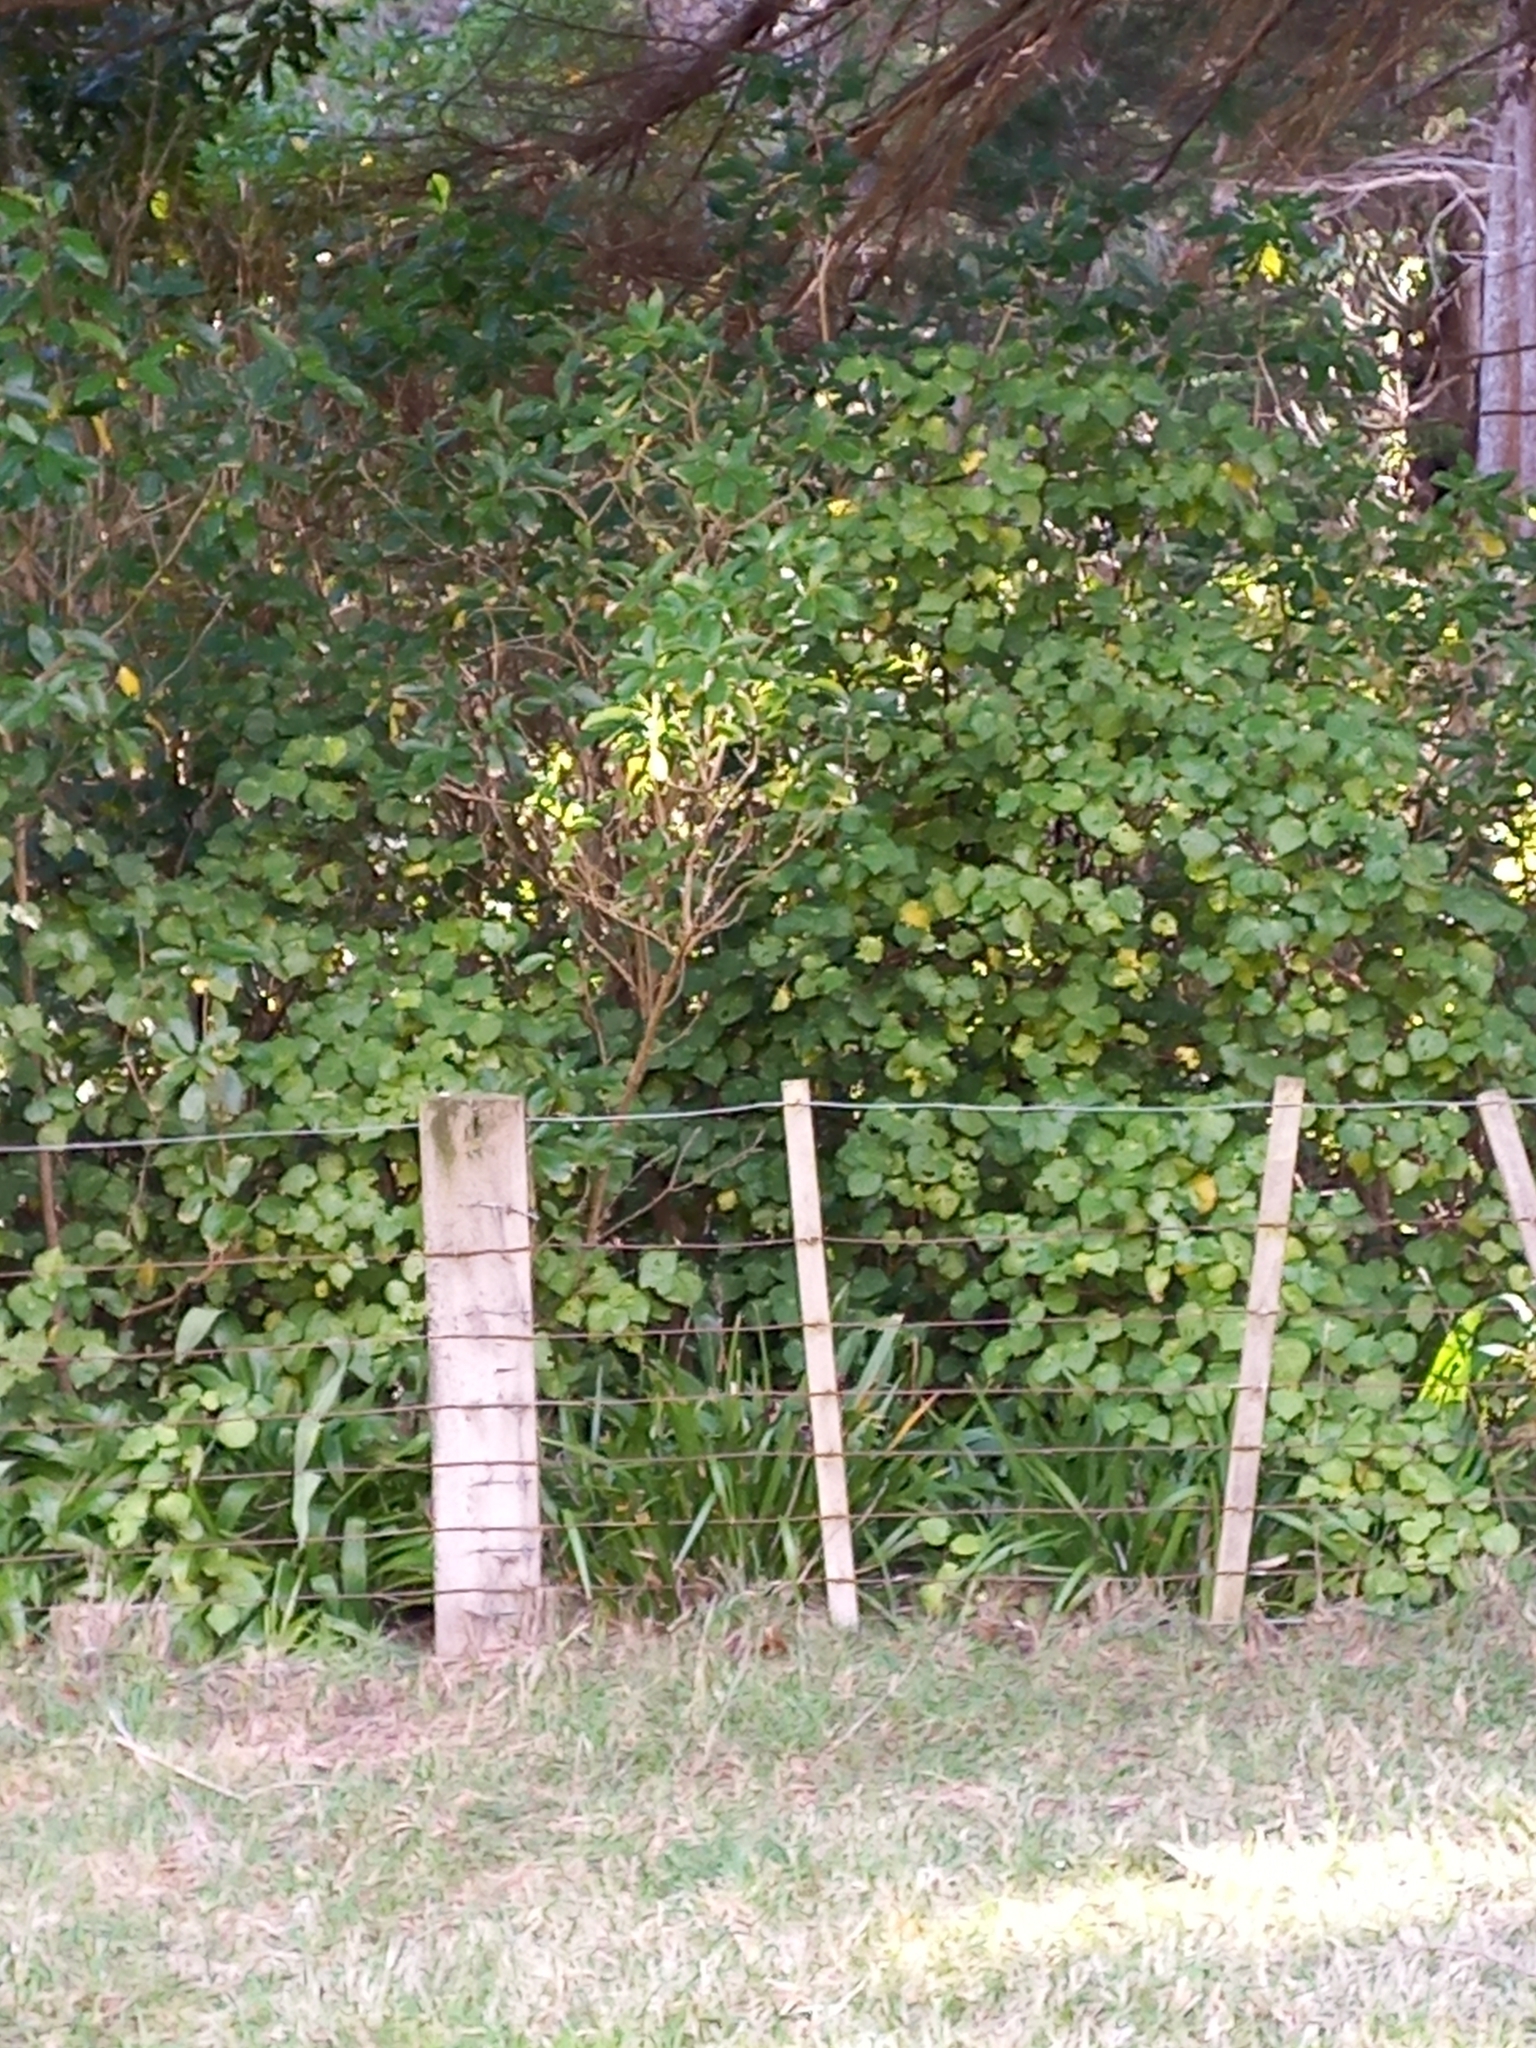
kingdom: Plantae
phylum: Tracheophyta
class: Magnoliopsida
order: Piperales
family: Piperaceae
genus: Macropiper
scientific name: Macropiper excelsum
